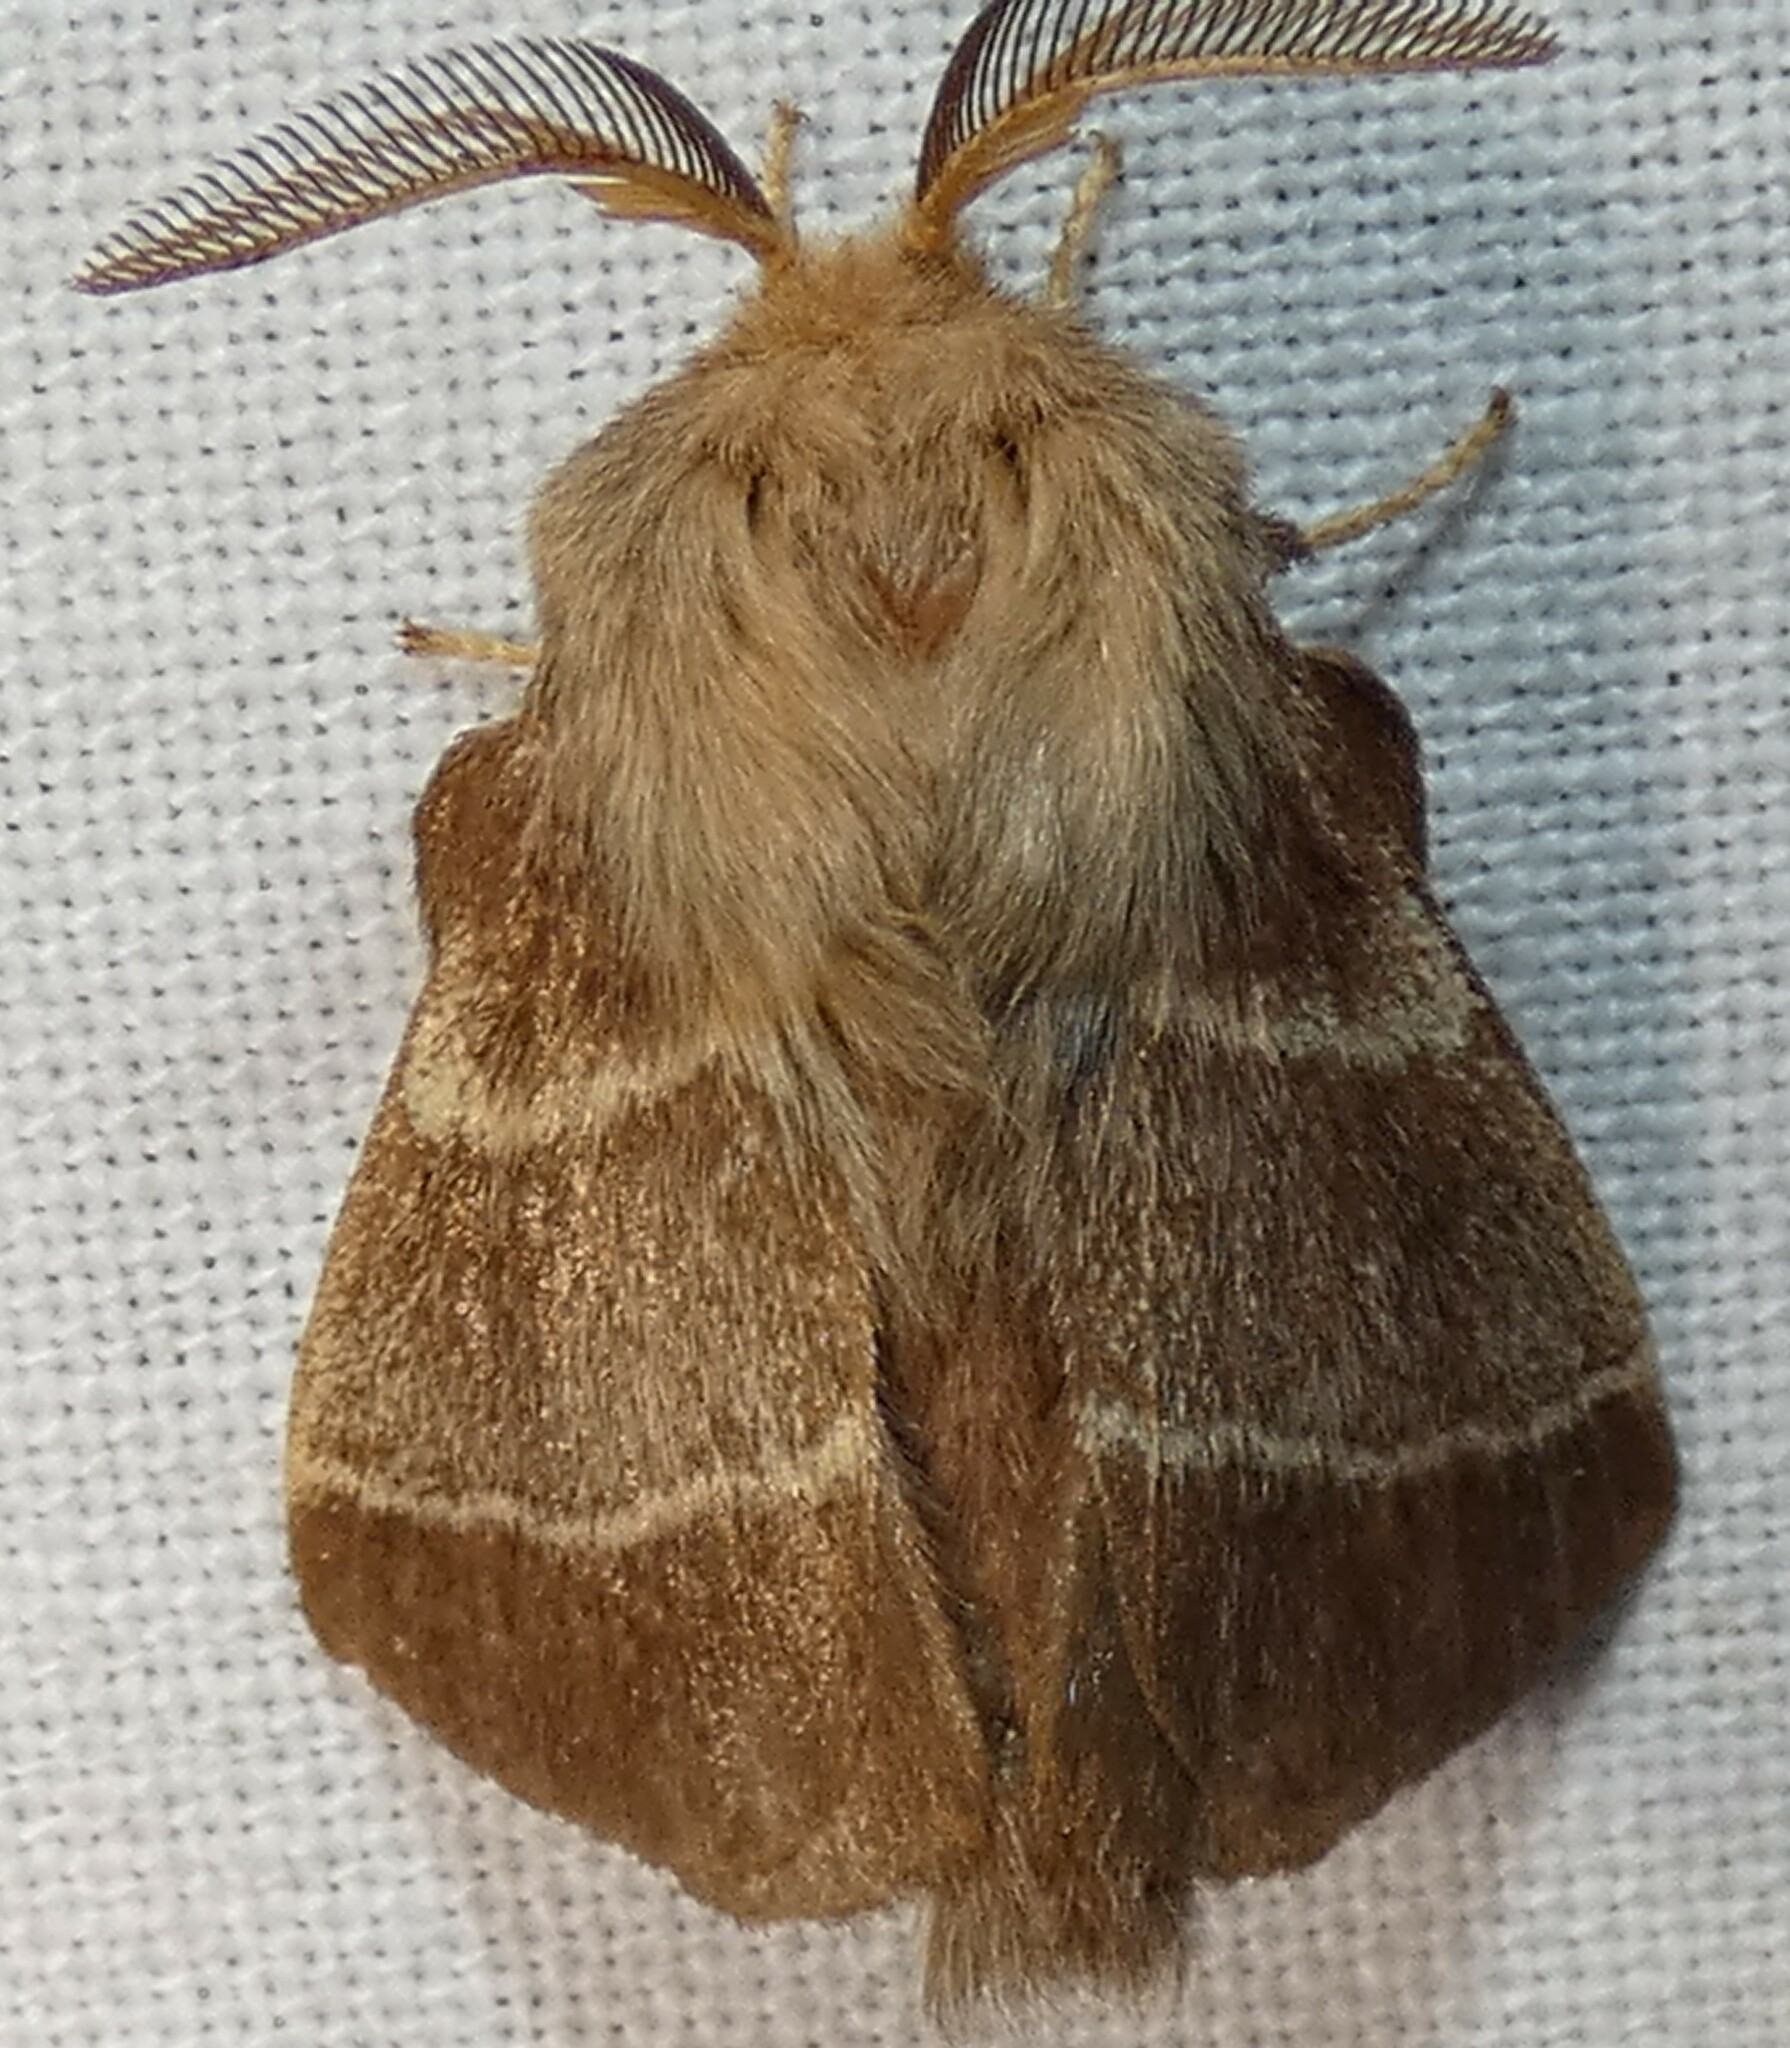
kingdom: Animalia
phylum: Arthropoda
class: Insecta
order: Lepidoptera
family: Lasiocampidae
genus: Malacosoma
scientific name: Malacosoma americana
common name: Eastern tent caterpillar moth
